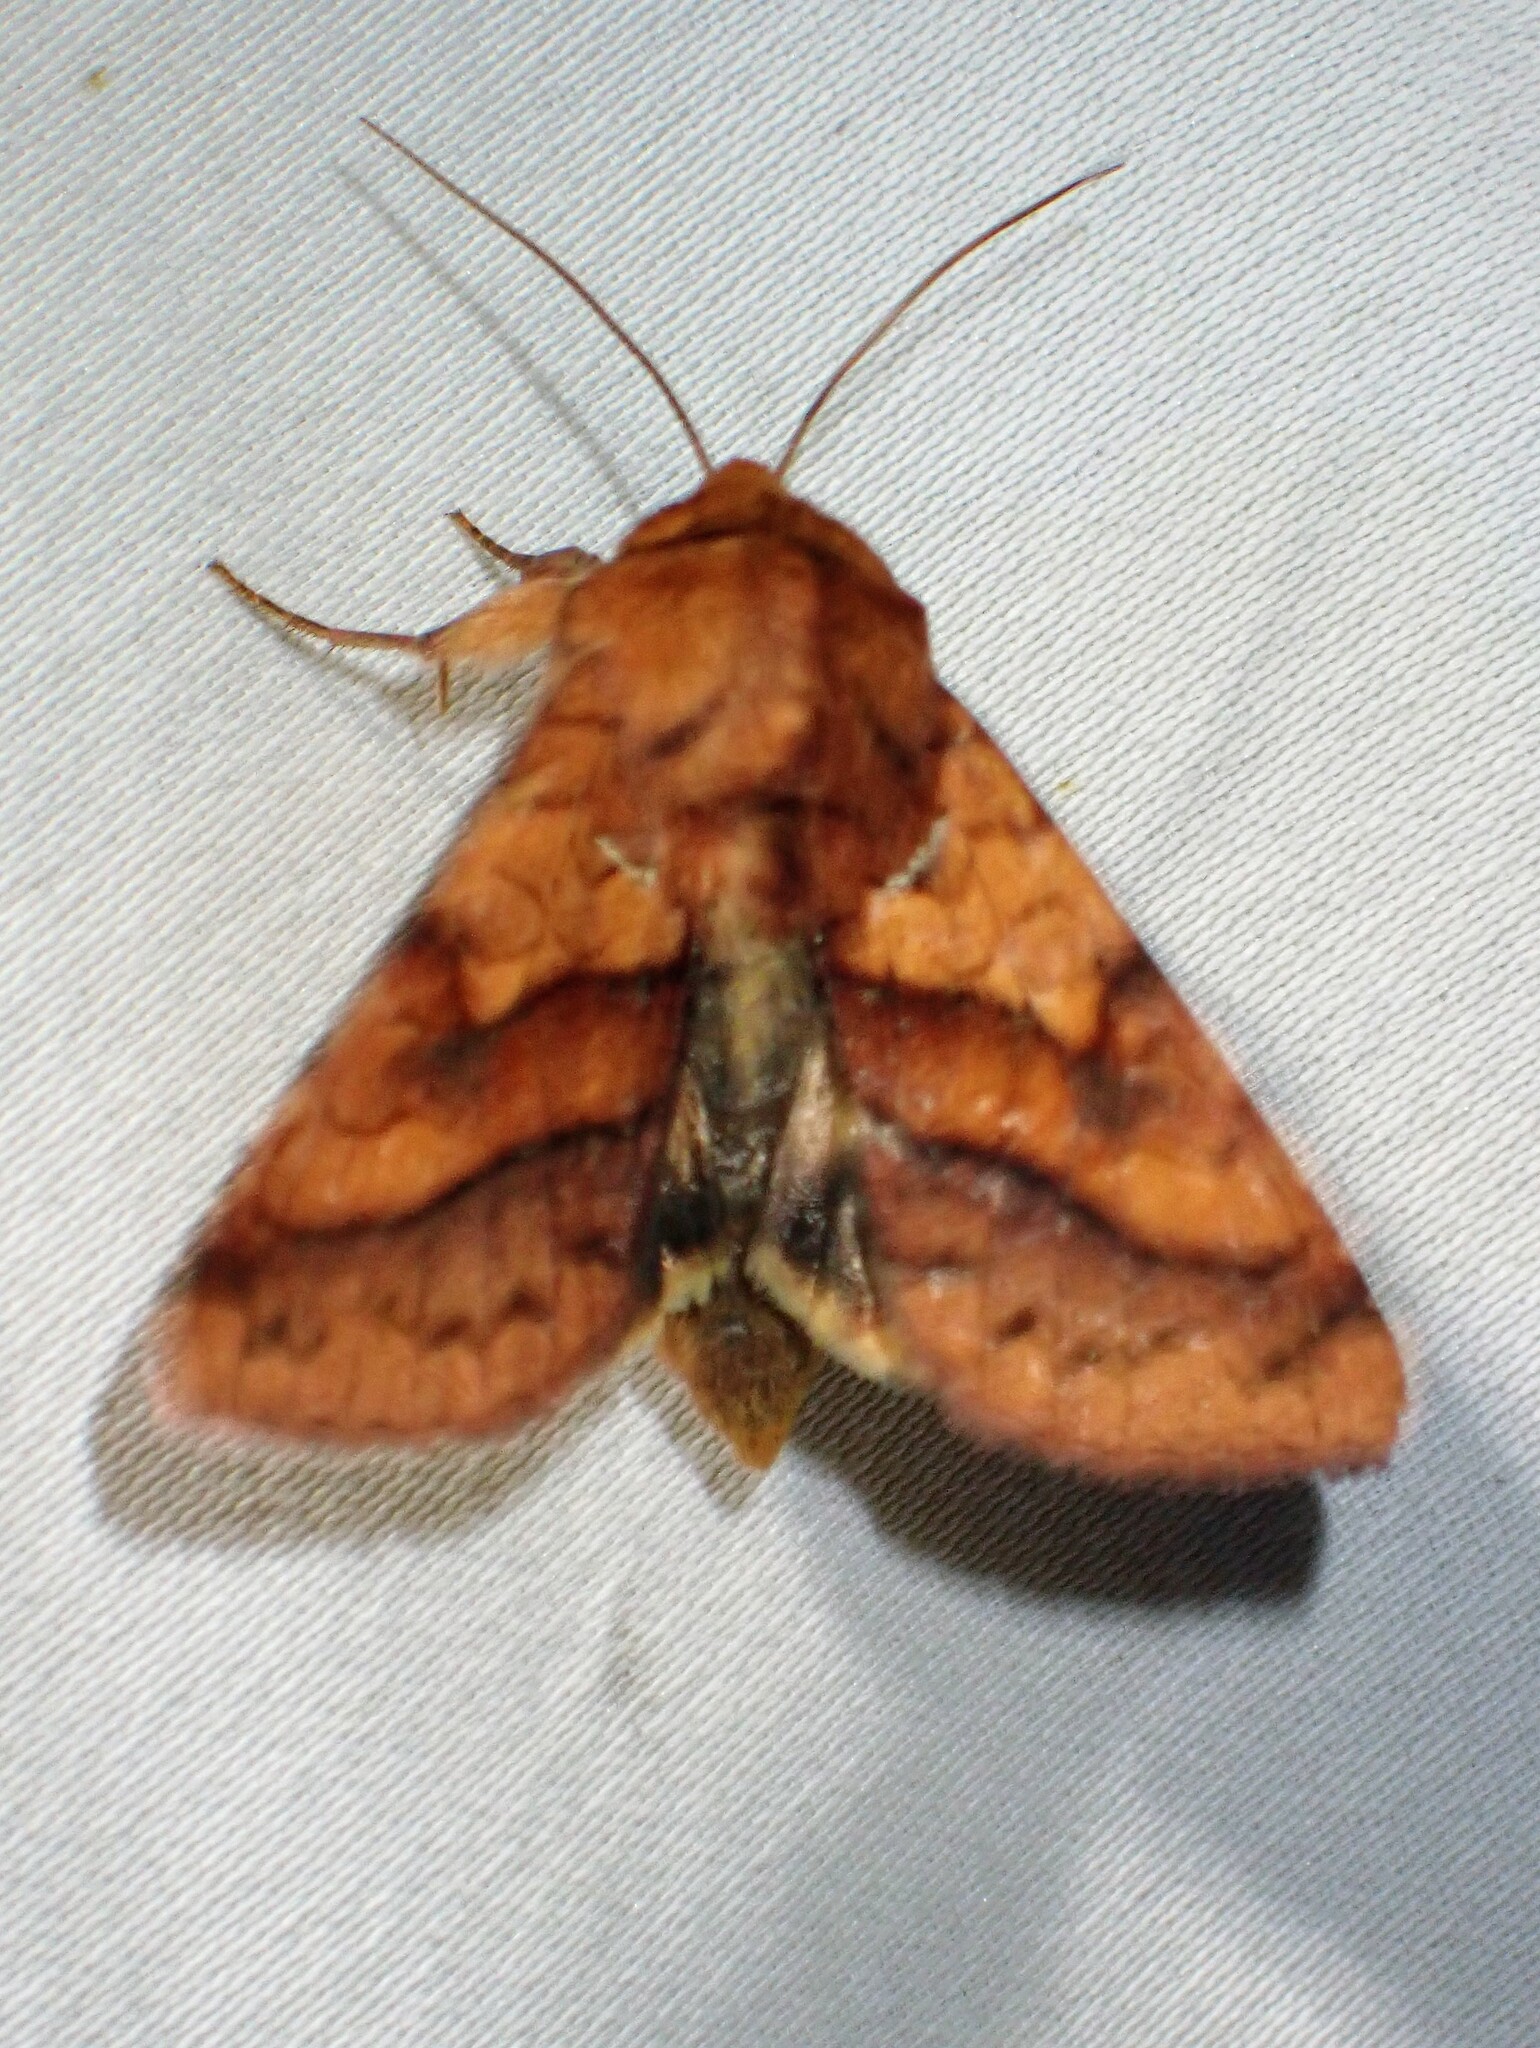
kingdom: Animalia
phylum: Arthropoda
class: Insecta
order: Lepidoptera
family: Noctuidae
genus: Pyrrhia
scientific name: Pyrrhia exprimens
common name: Purple-lined sallow
